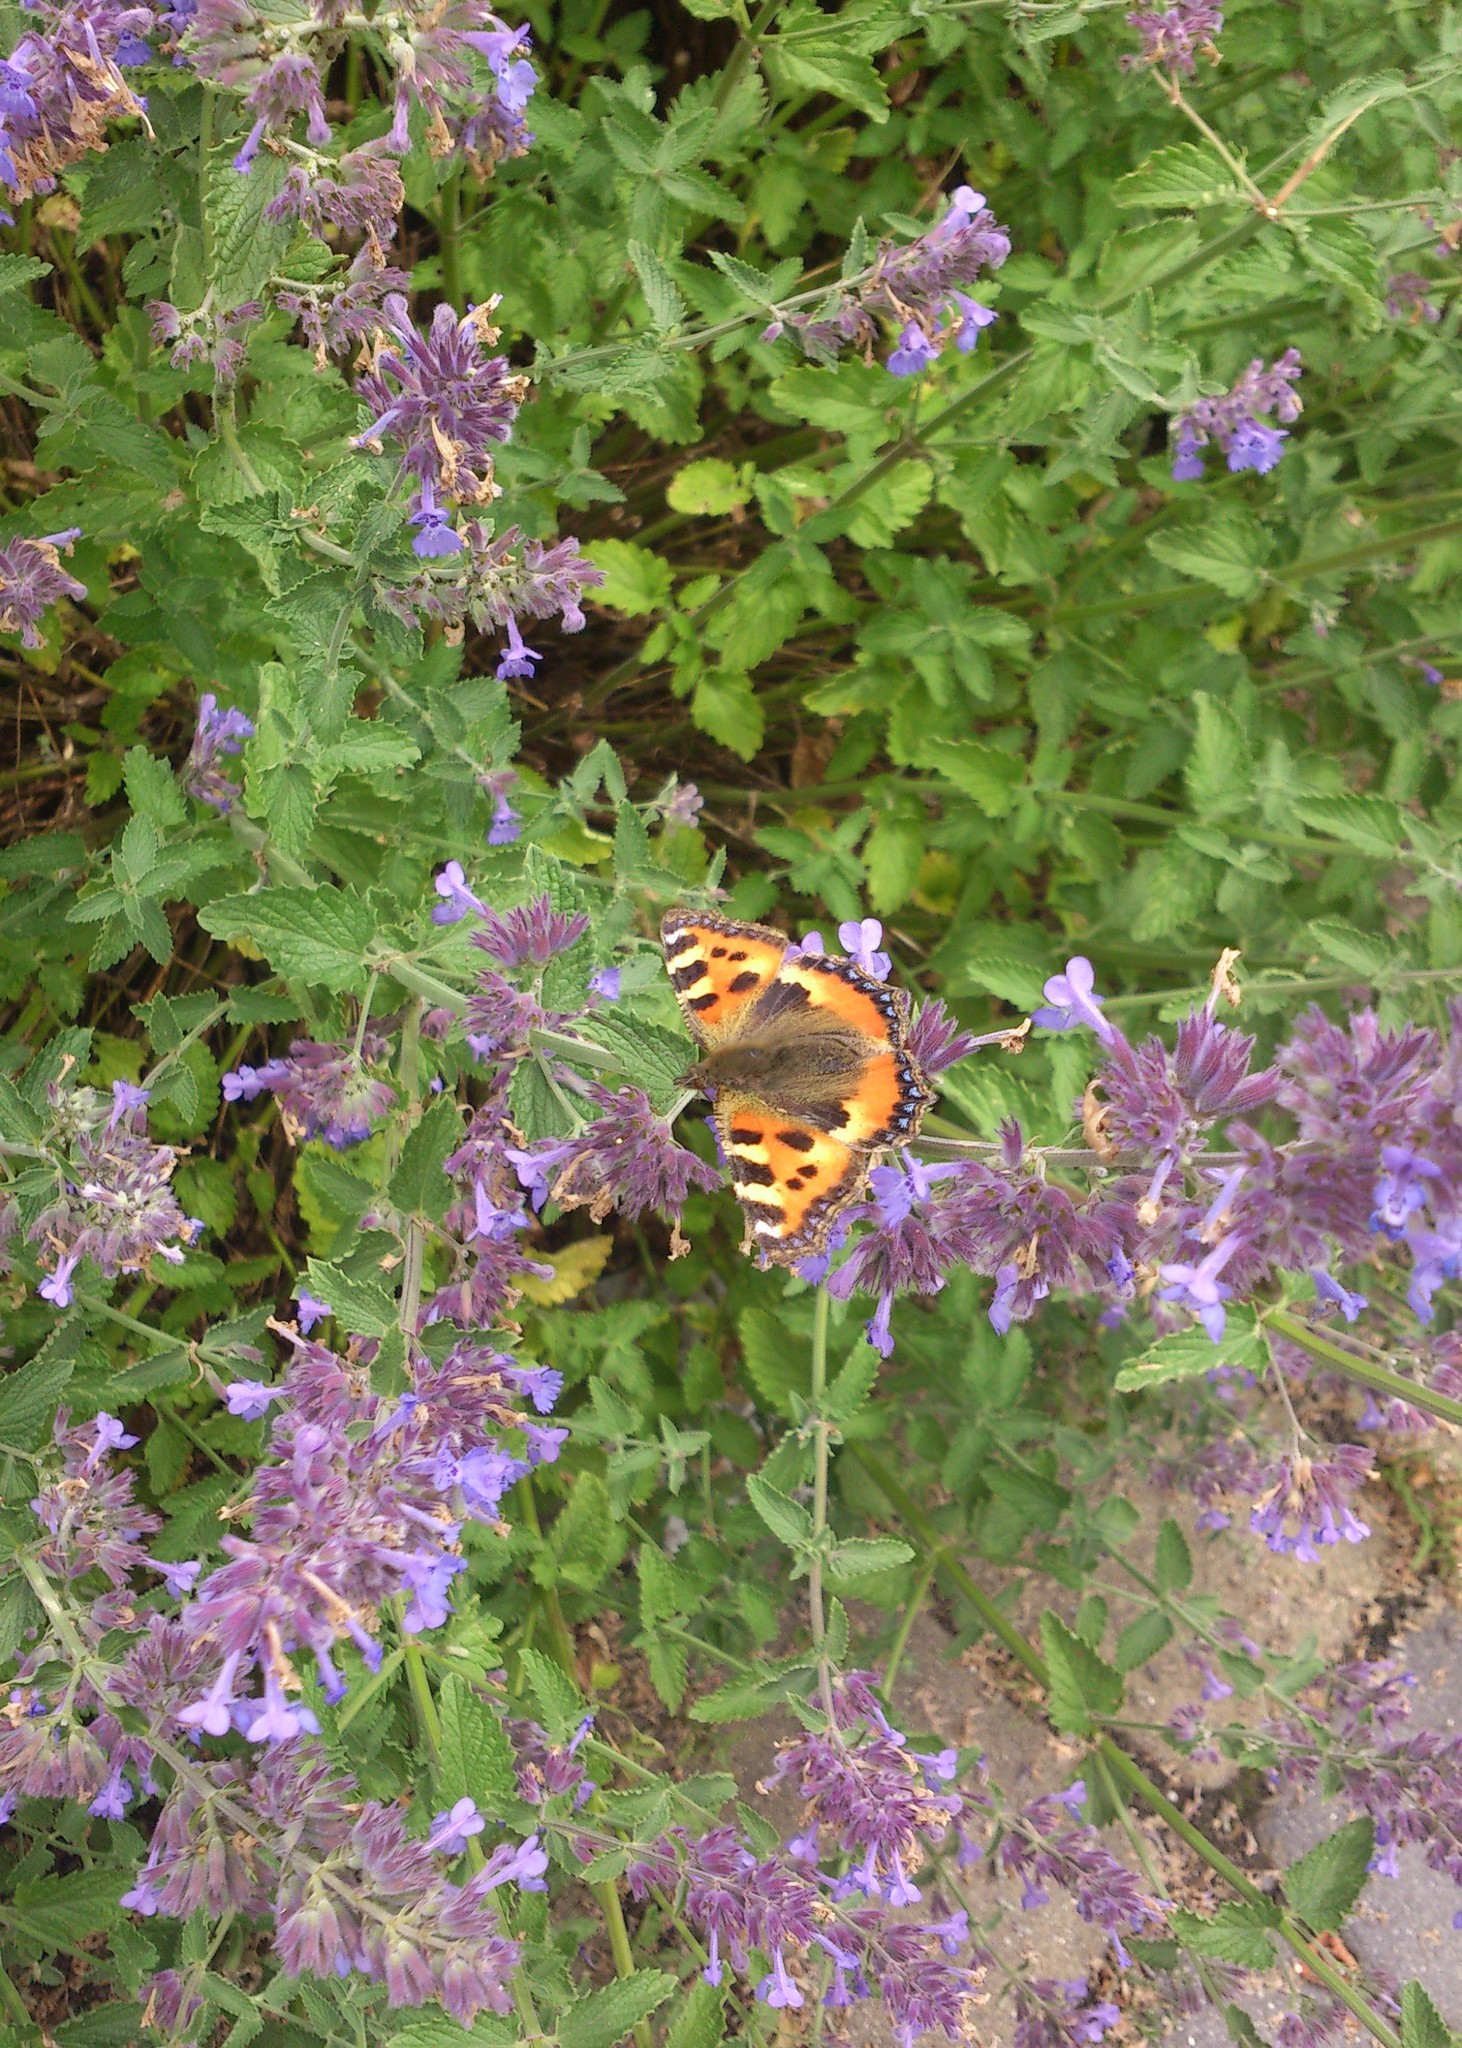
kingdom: Animalia
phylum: Arthropoda
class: Insecta
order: Lepidoptera
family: Nymphalidae
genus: Aglais
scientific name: Aglais urticae
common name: Small tortoiseshell
